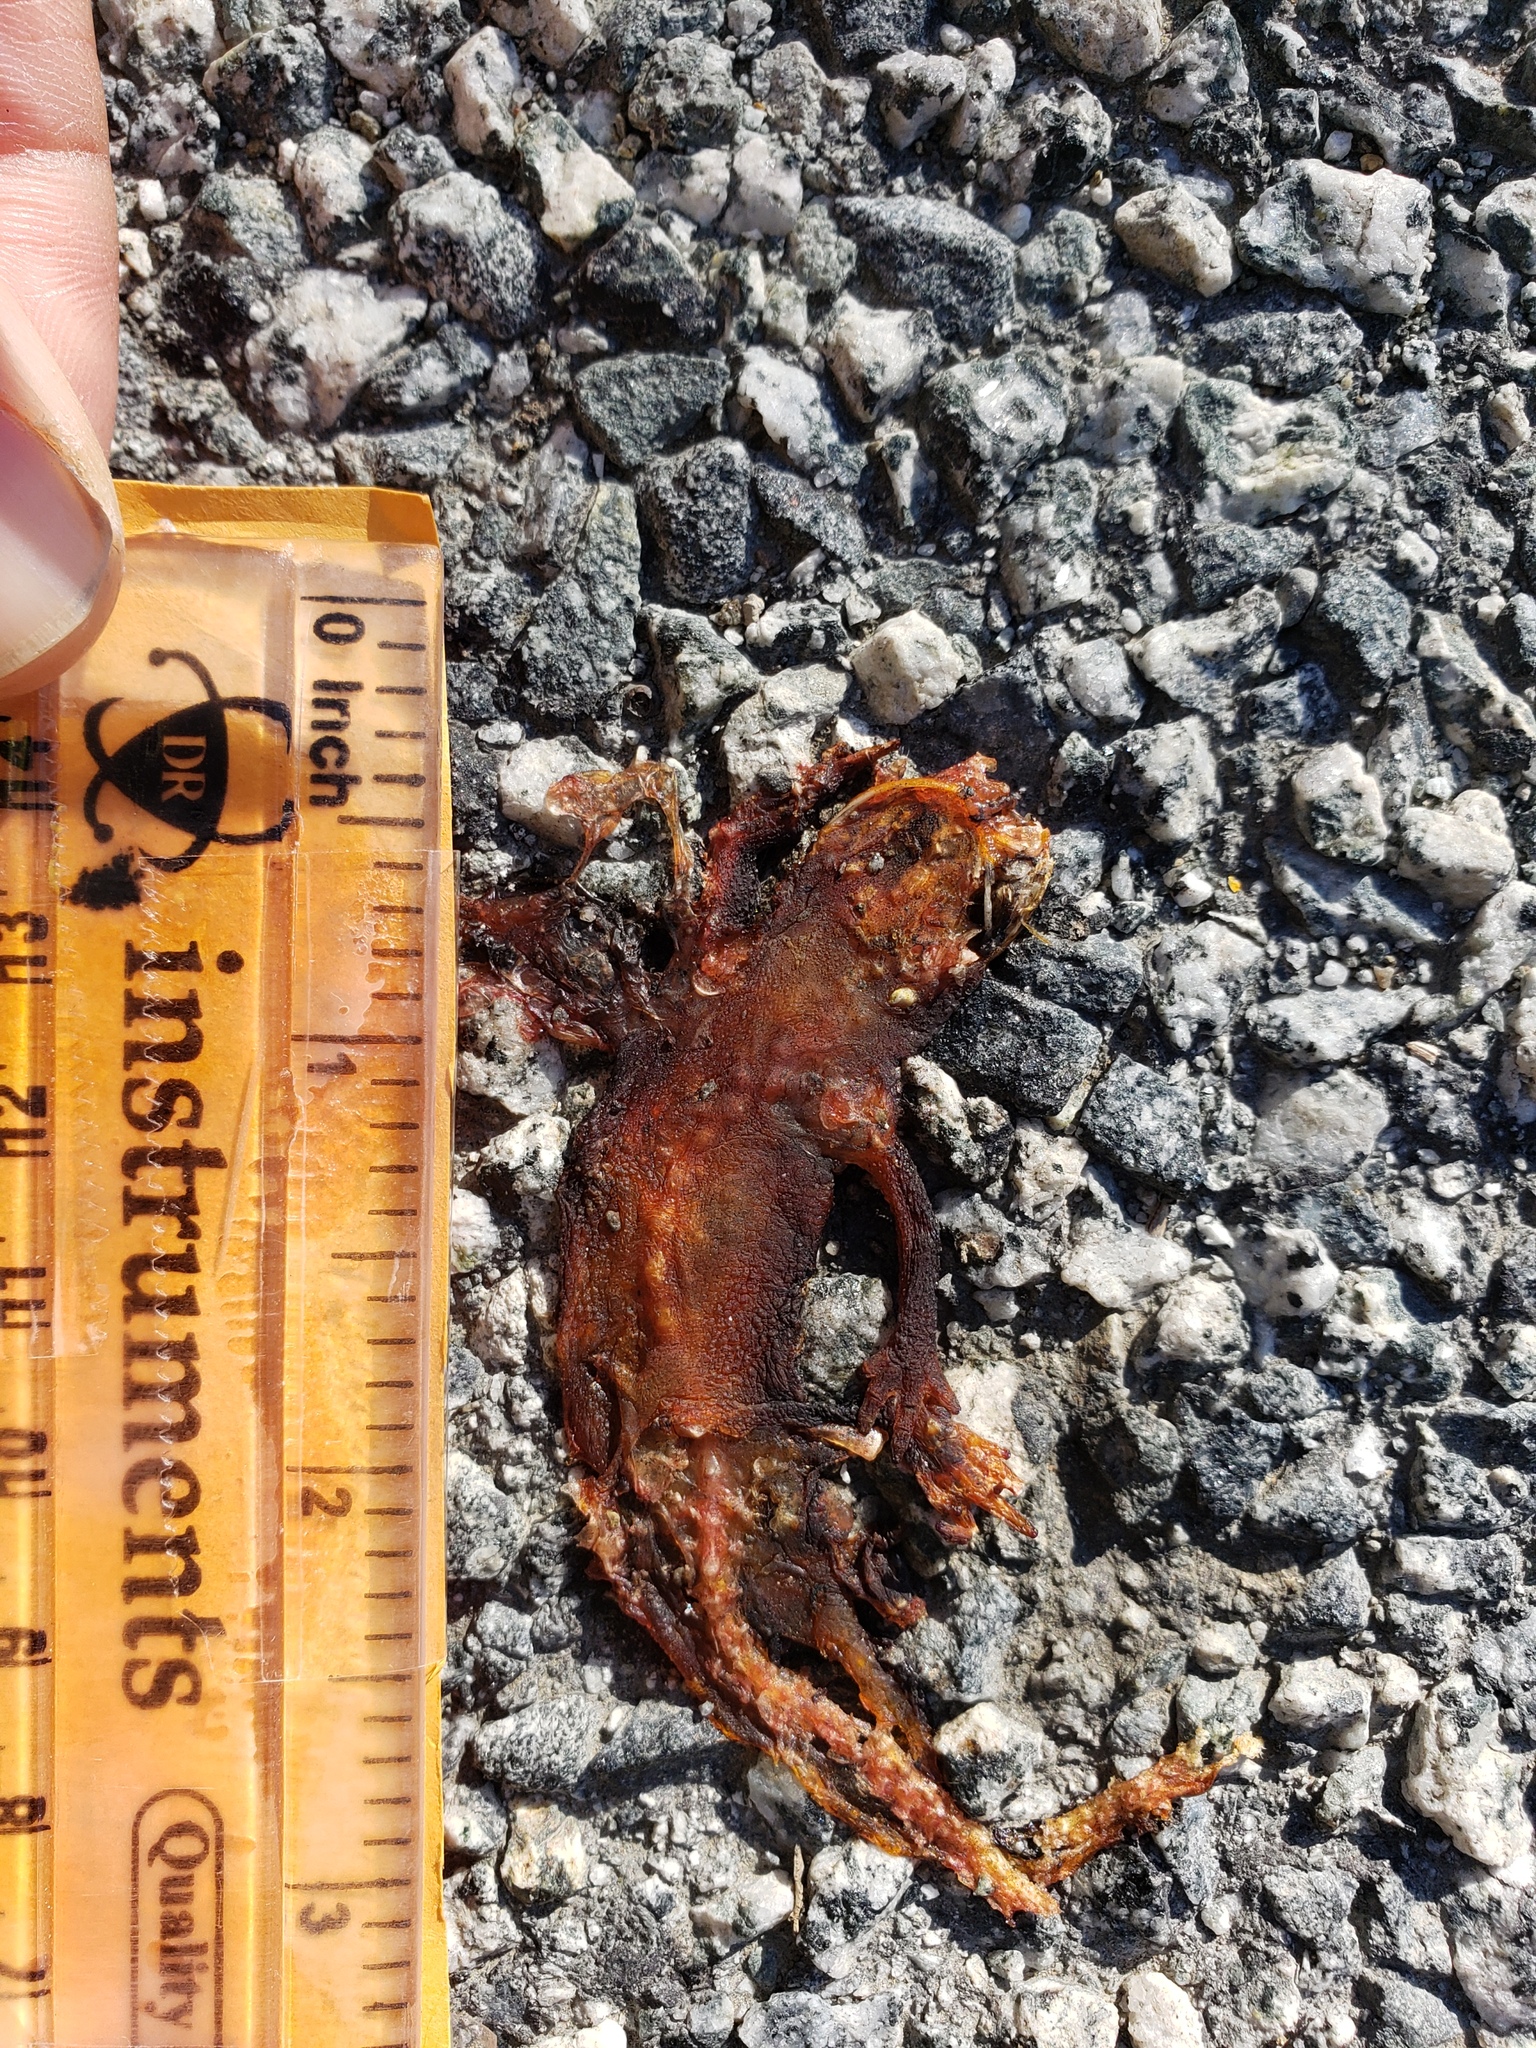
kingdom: Animalia
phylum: Chordata
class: Amphibia
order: Caudata
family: Salamandridae
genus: Taricha
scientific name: Taricha
